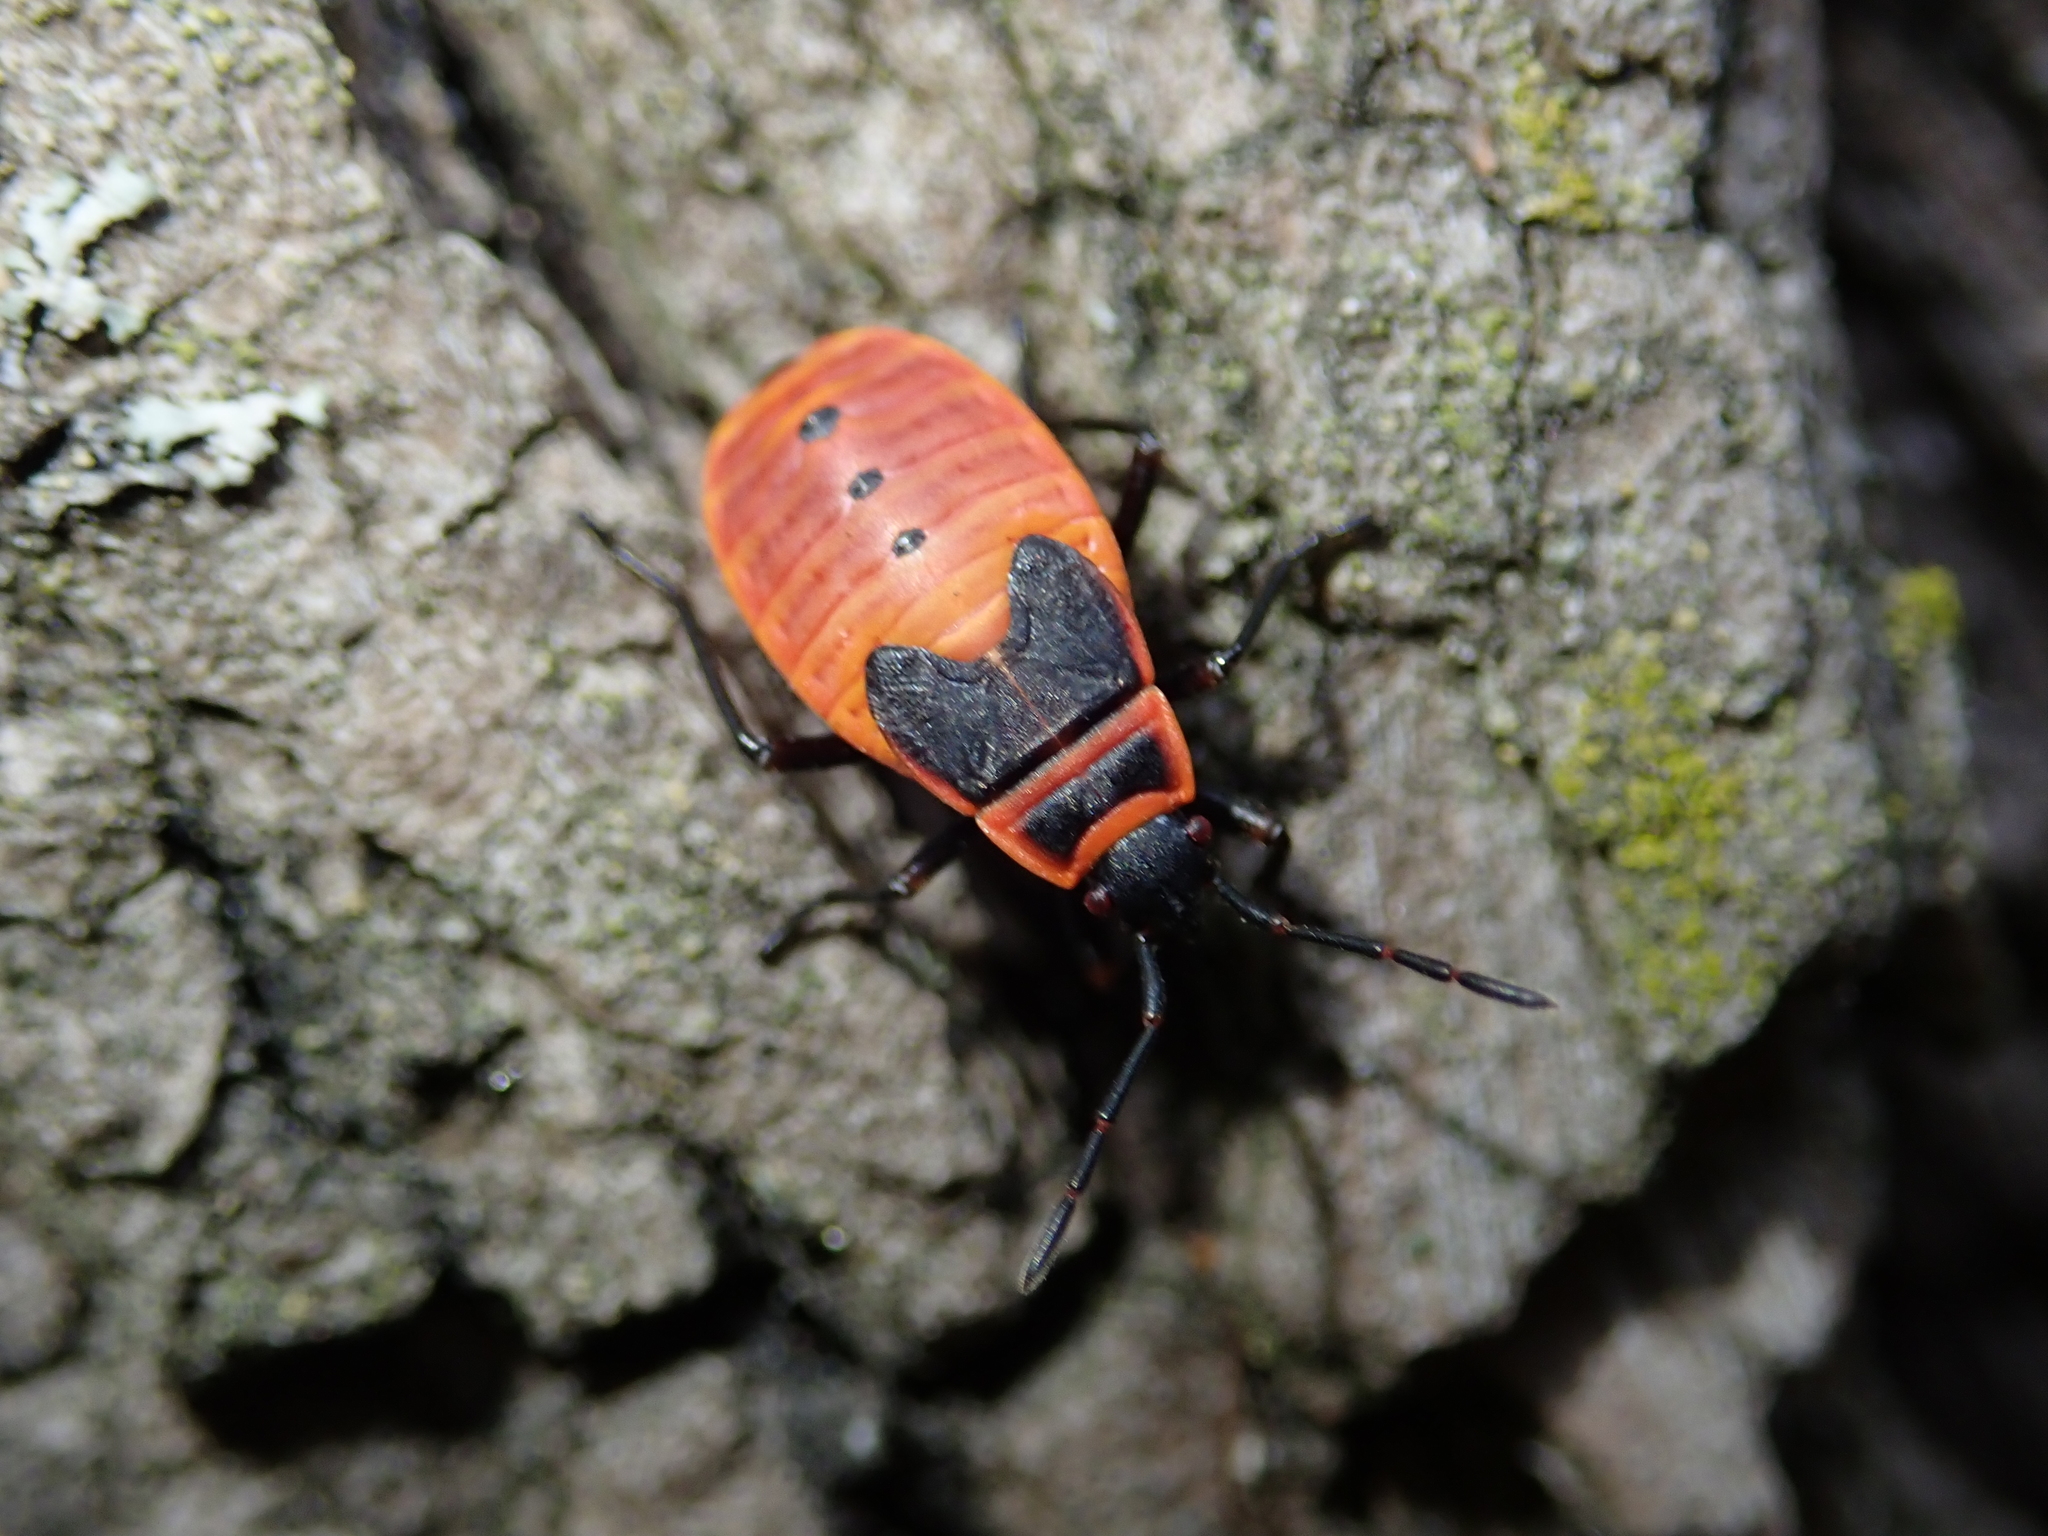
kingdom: Animalia
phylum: Arthropoda
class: Insecta
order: Hemiptera
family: Pyrrhocoridae
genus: Pyrrhocoris
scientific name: Pyrrhocoris apterus
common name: Firebug
